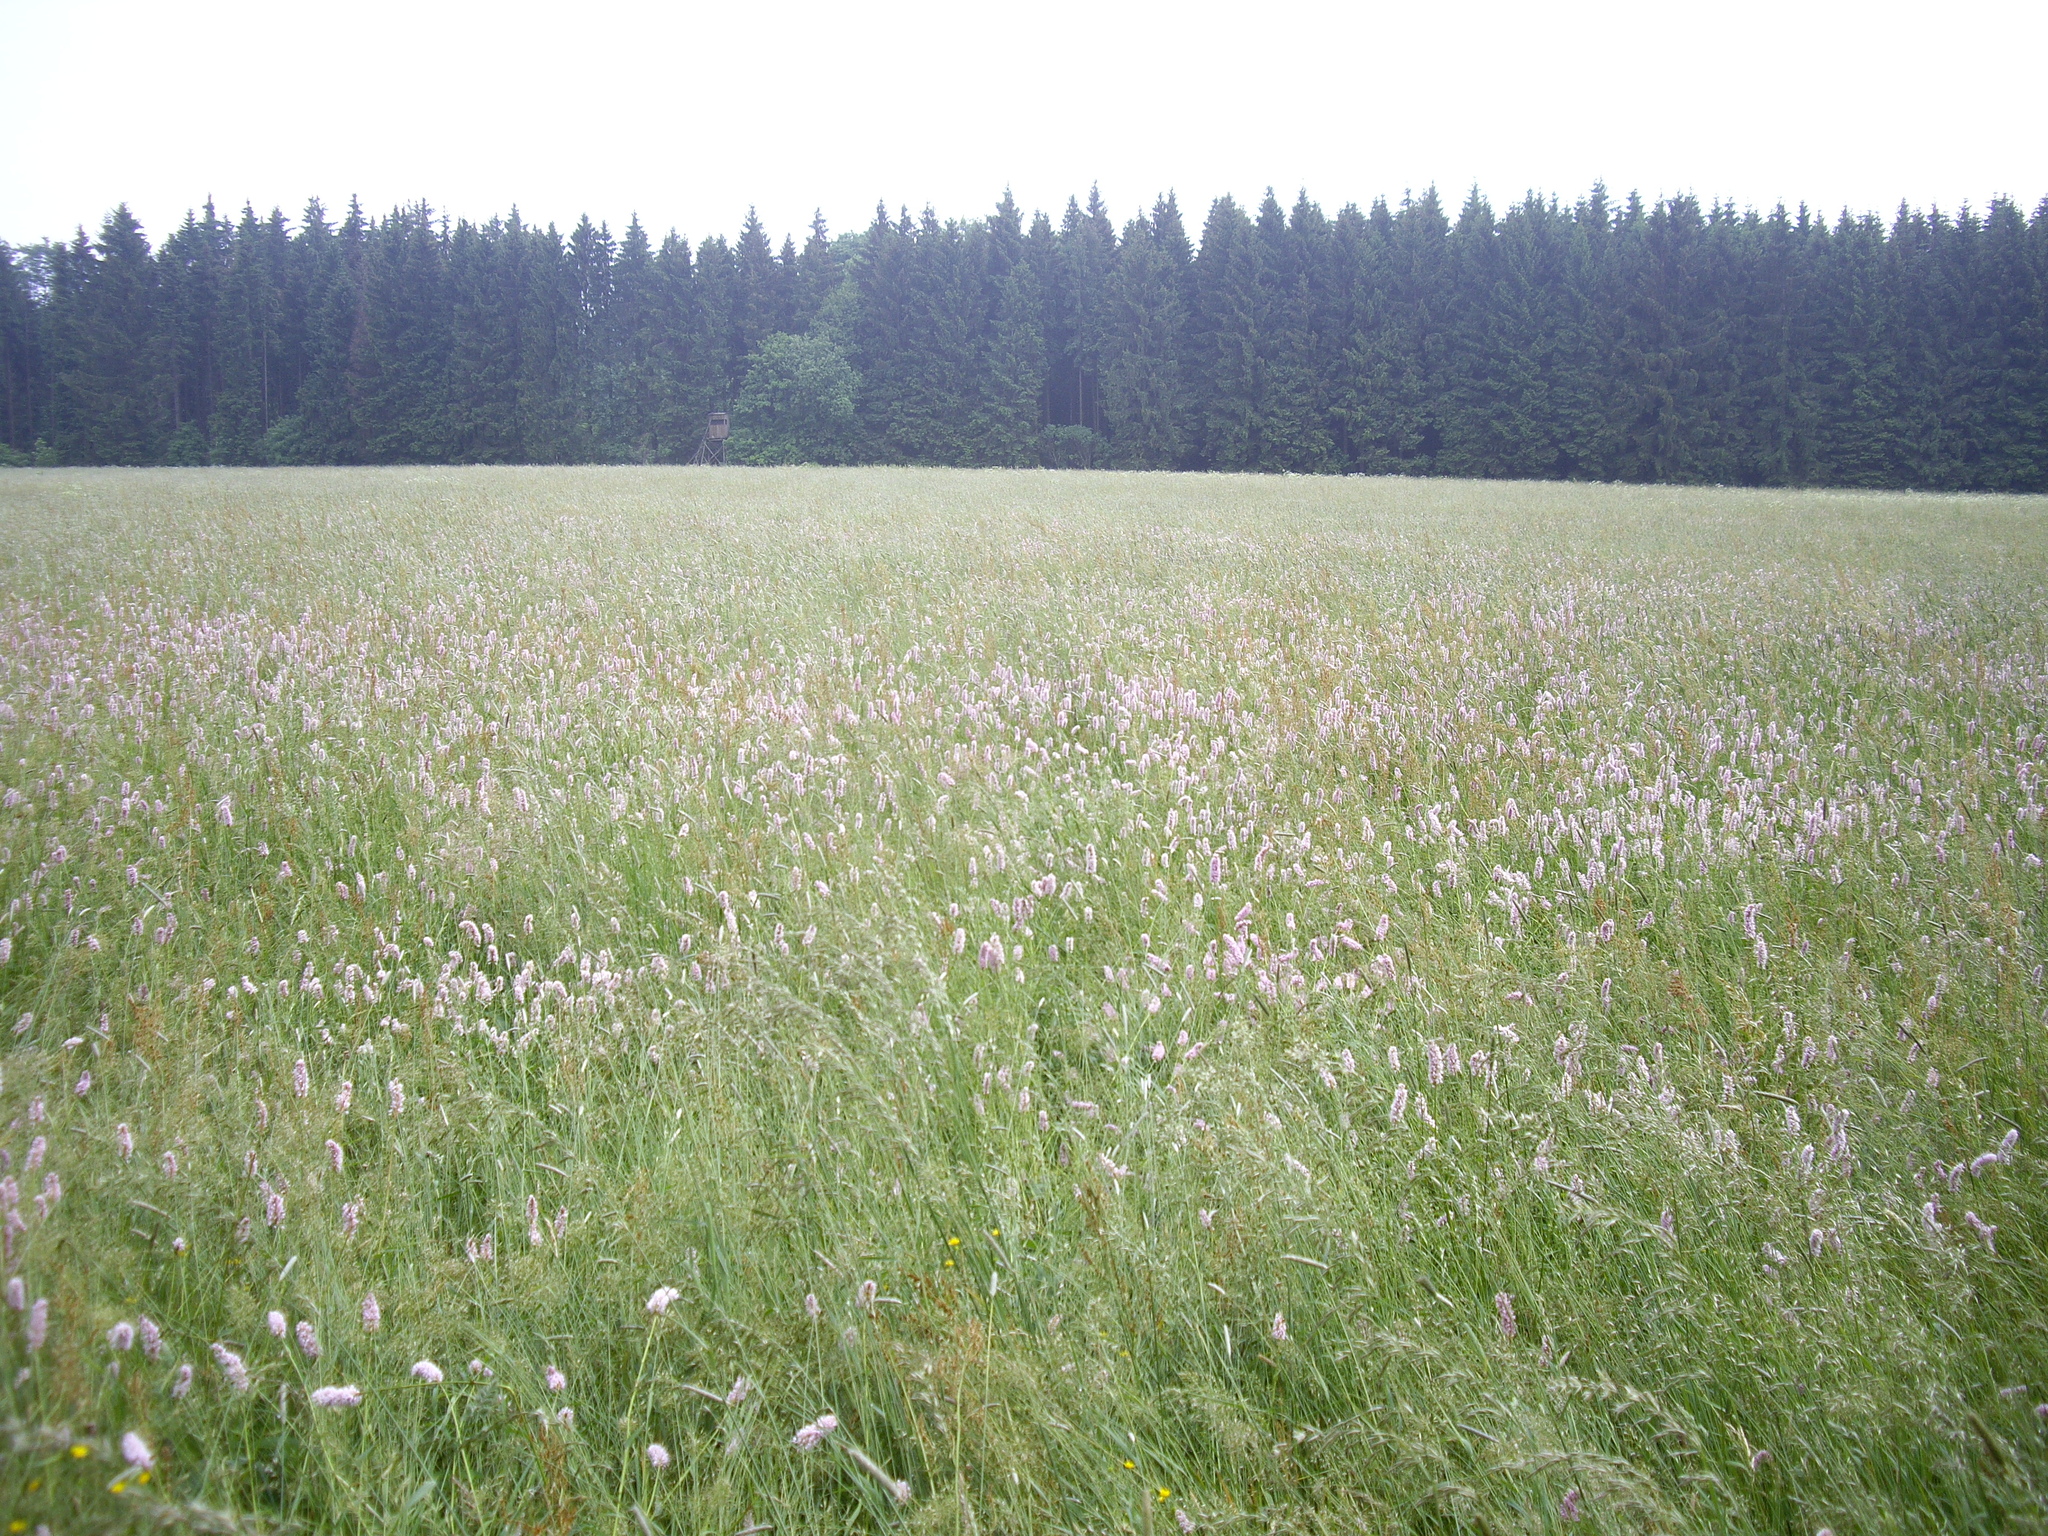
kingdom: Plantae
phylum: Tracheophyta
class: Magnoliopsida
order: Caryophyllales
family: Polygonaceae
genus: Bistorta
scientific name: Bistorta officinalis
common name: Common bistort
